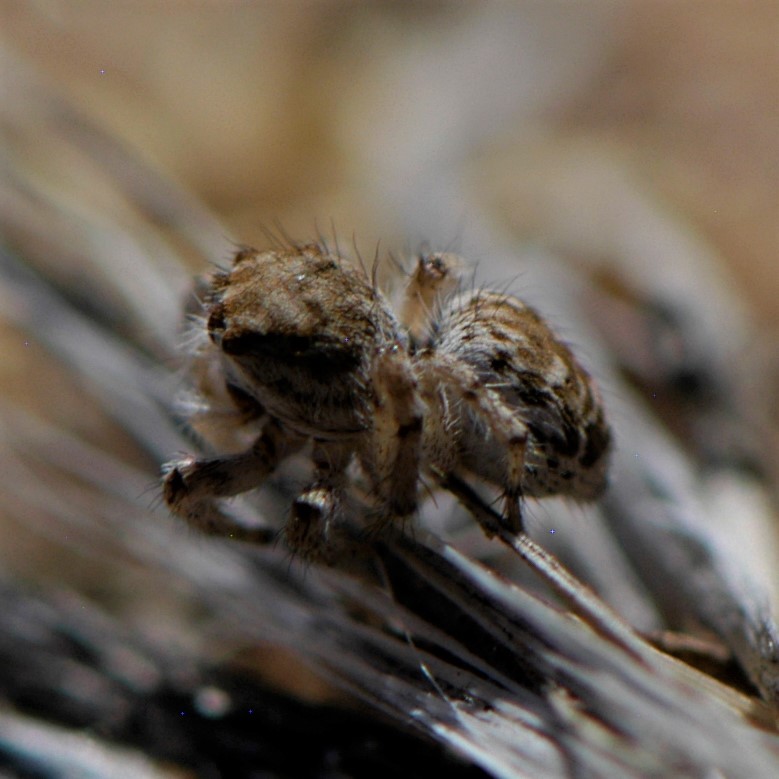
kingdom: Animalia
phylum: Arthropoda
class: Arachnida
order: Araneae
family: Salticidae
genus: Habronattus
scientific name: Habronattus
